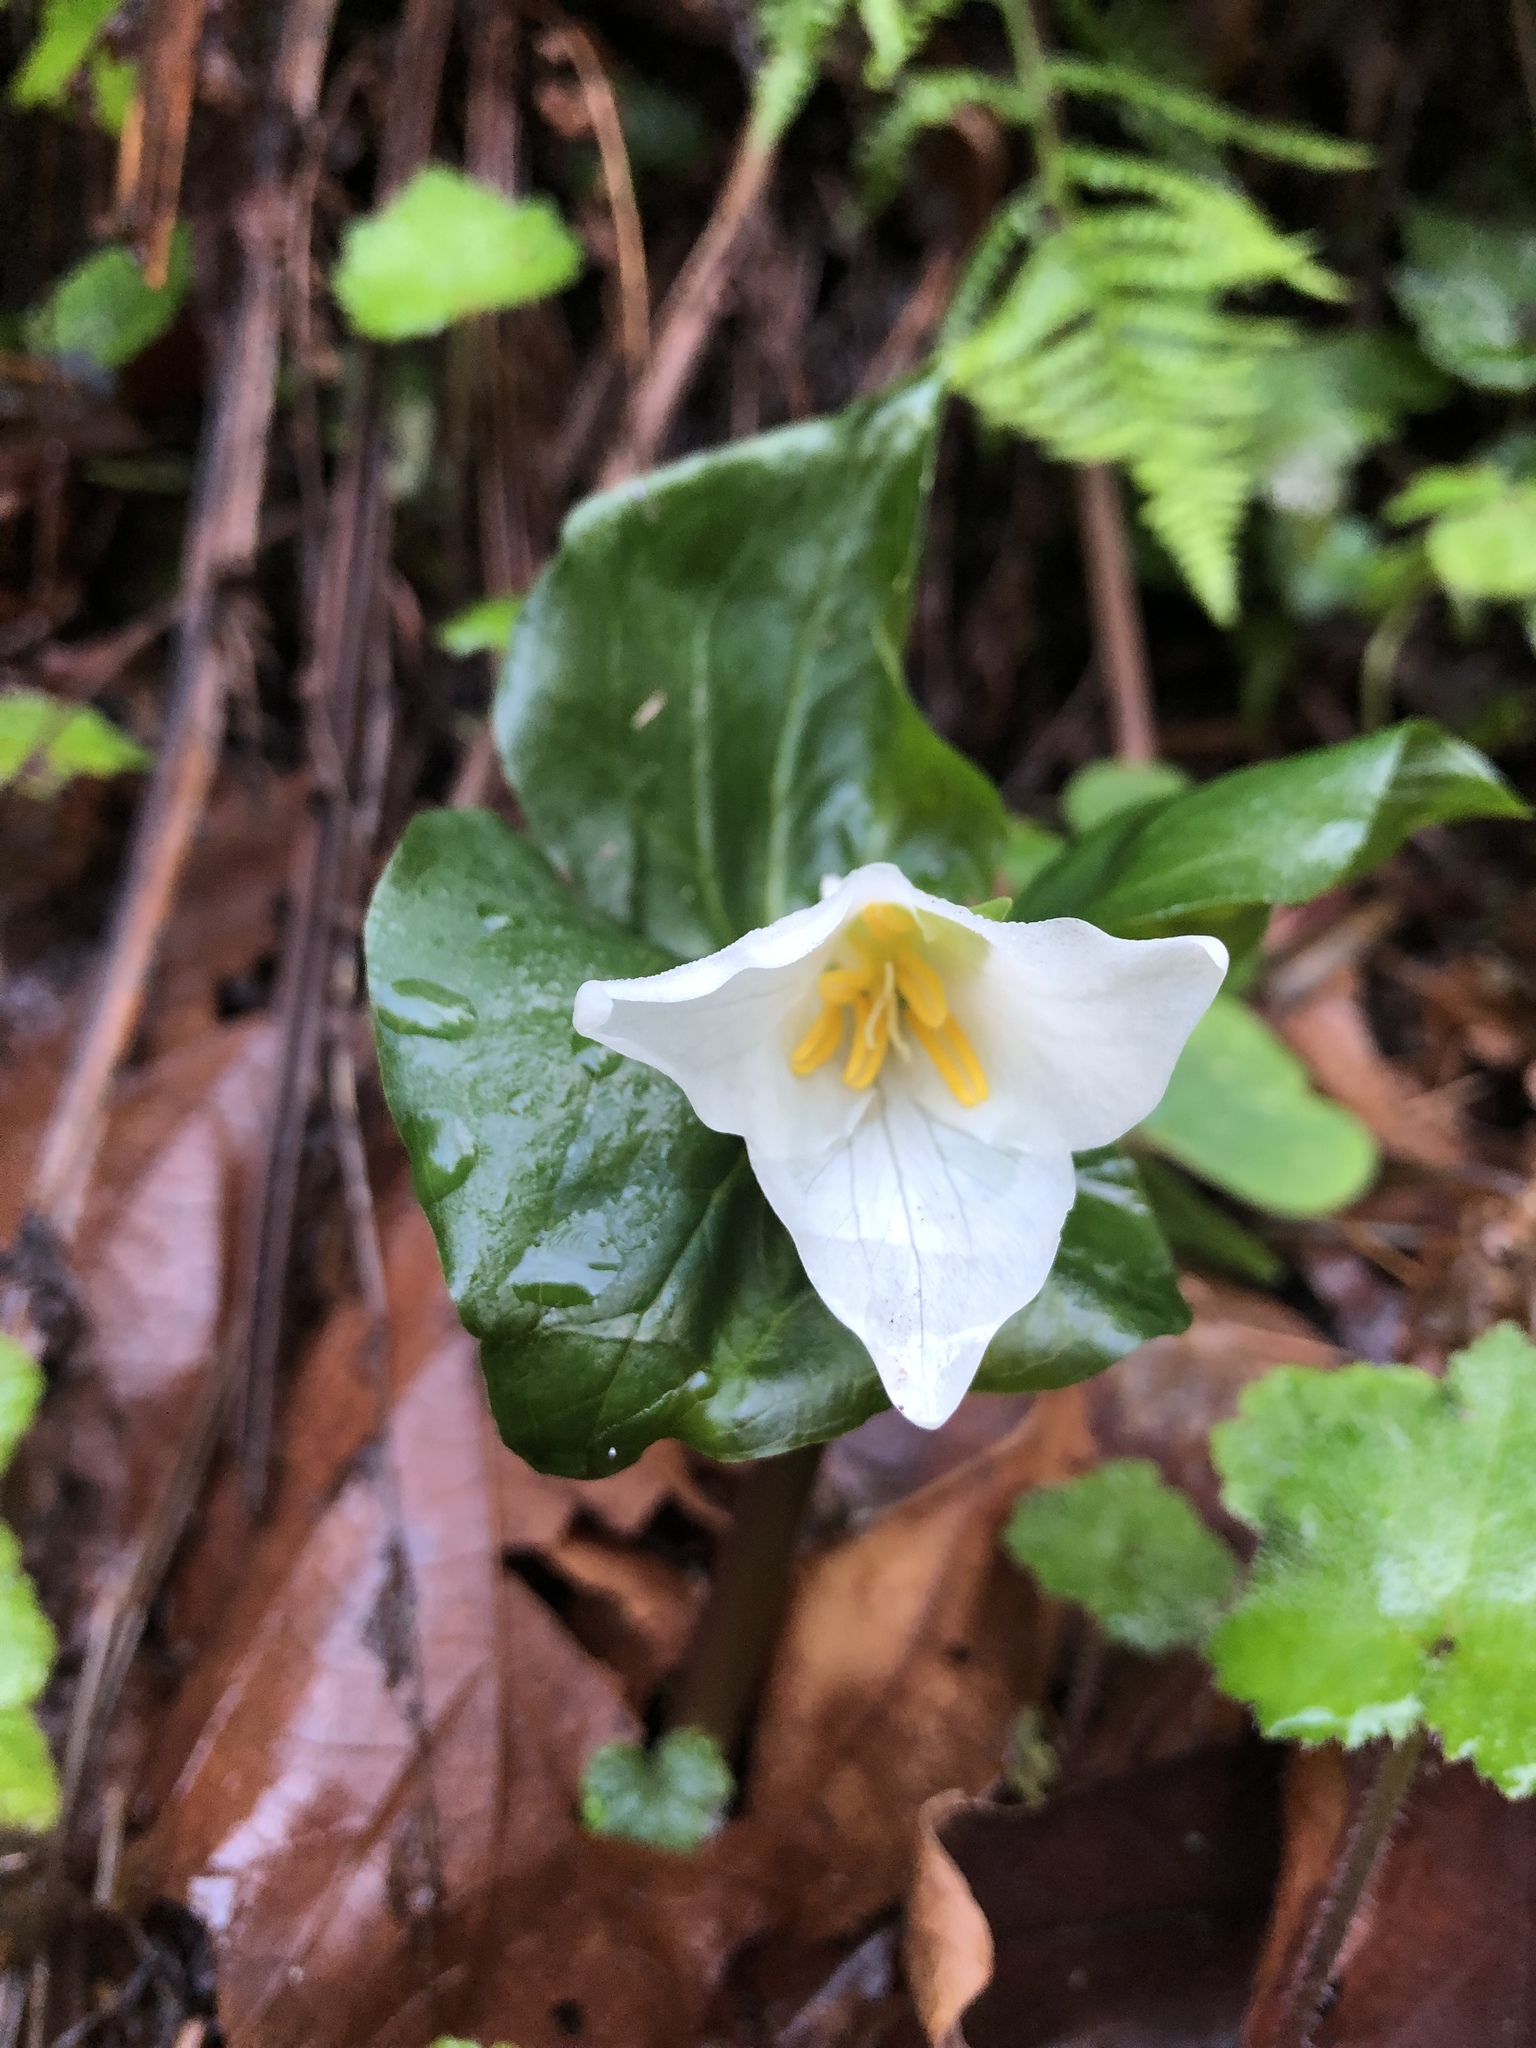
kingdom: Plantae
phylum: Tracheophyta
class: Liliopsida
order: Liliales
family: Melanthiaceae
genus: Trillium
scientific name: Trillium ovatum
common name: Pacific trillium
